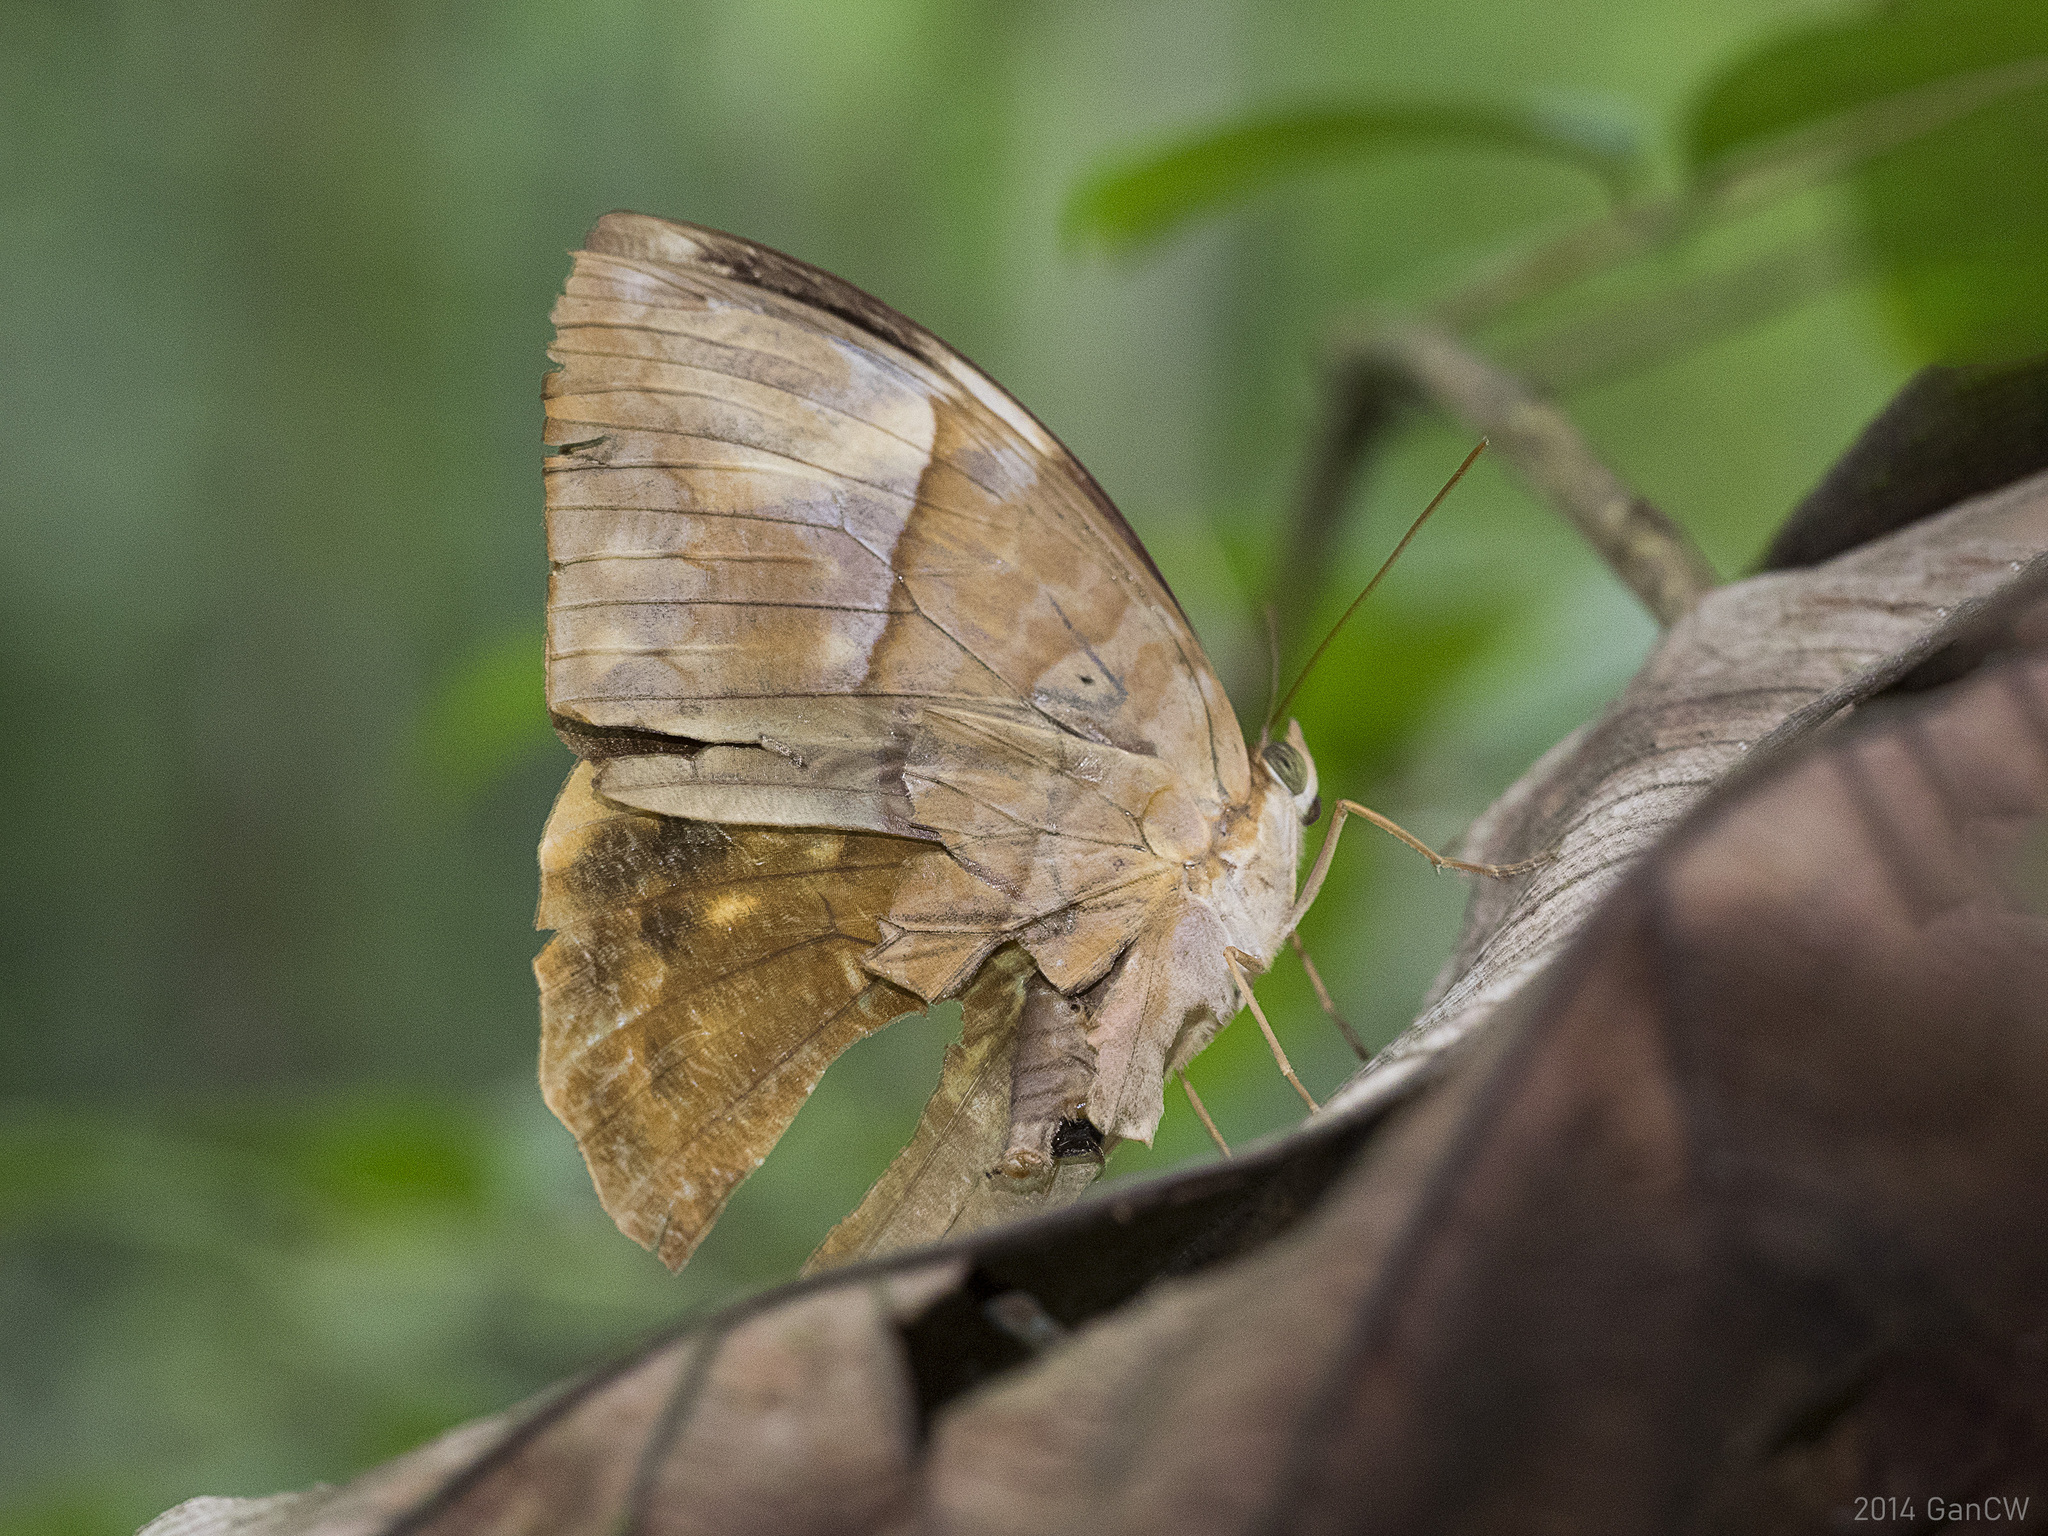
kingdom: Animalia
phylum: Arthropoda
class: Insecta
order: Lepidoptera
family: Nymphalidae
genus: Zeuxidia
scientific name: Zeuxidia amethysta
